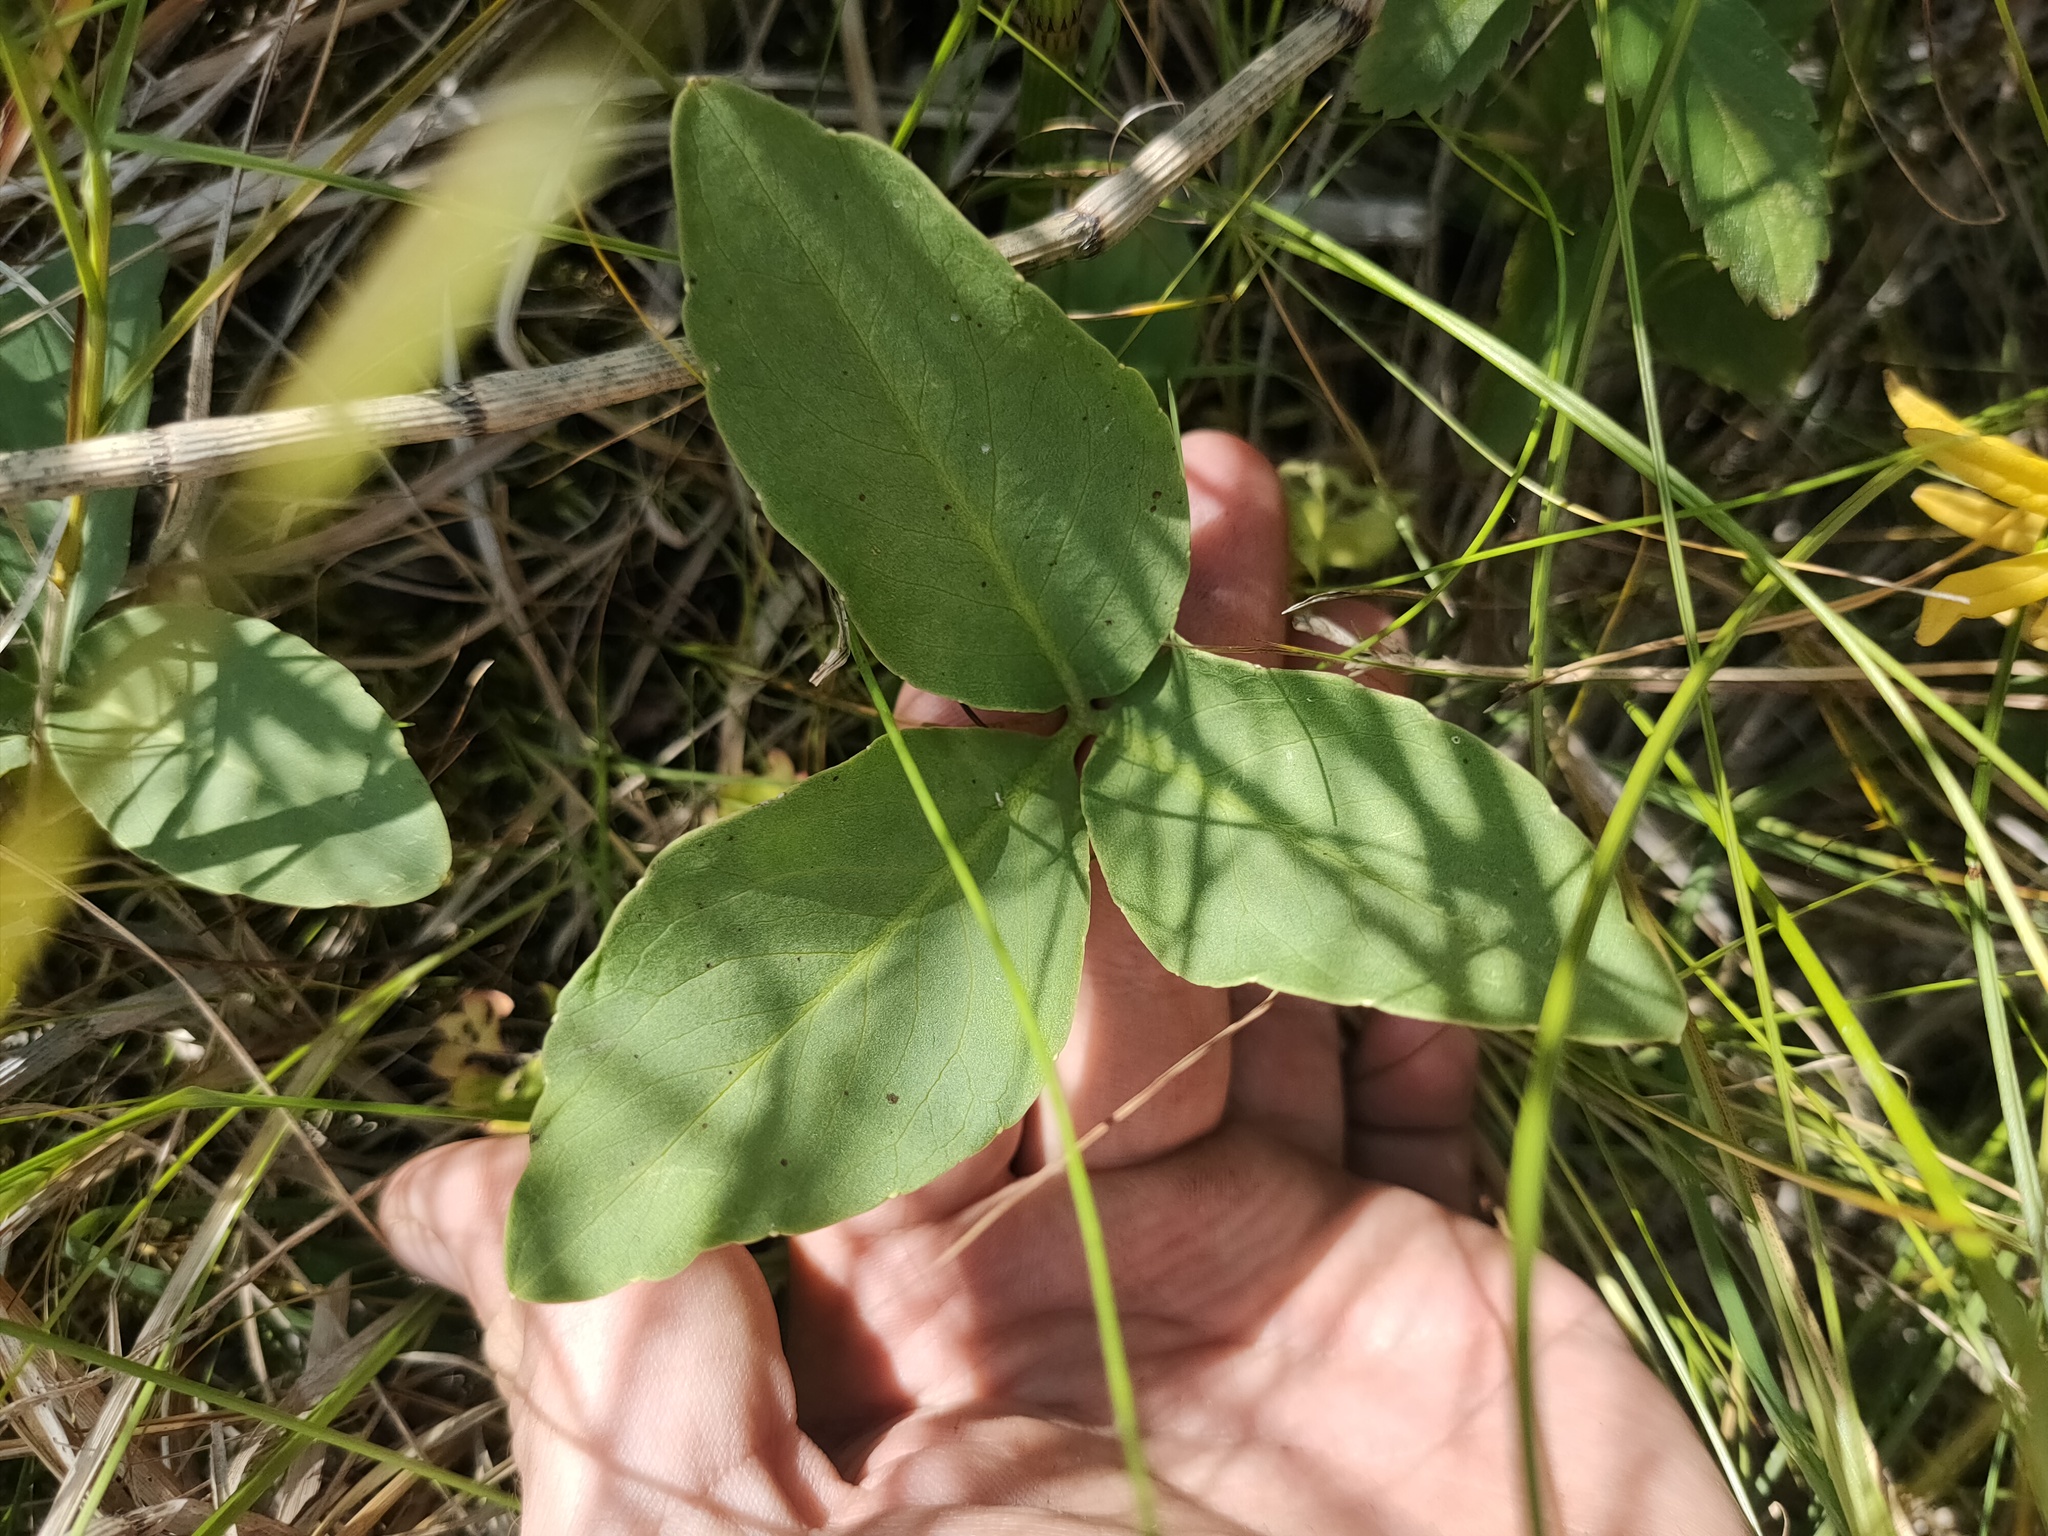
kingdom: Plantae
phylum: Tracheophyta
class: Magnoliopsida
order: Asterales
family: Menyanthaceae
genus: Menyanthes
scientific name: Menyanthes trifoliata
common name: Bogbean
